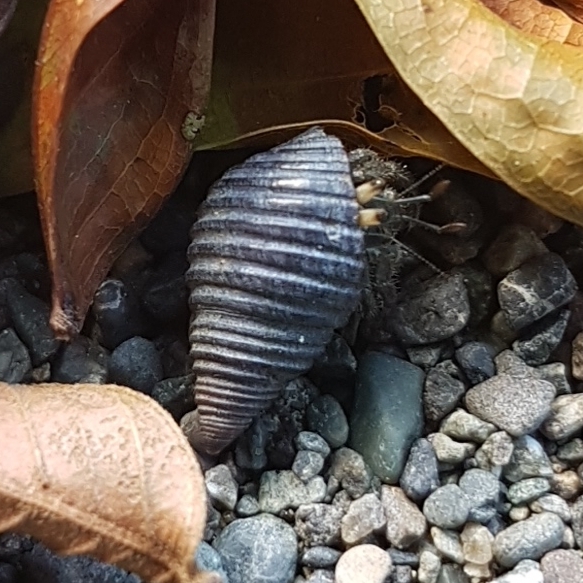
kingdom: Animalia
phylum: Arthropoda
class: Malacostraca
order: Decapoda
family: Coenobitidae
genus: Coenobita
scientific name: Coenobita compressus
